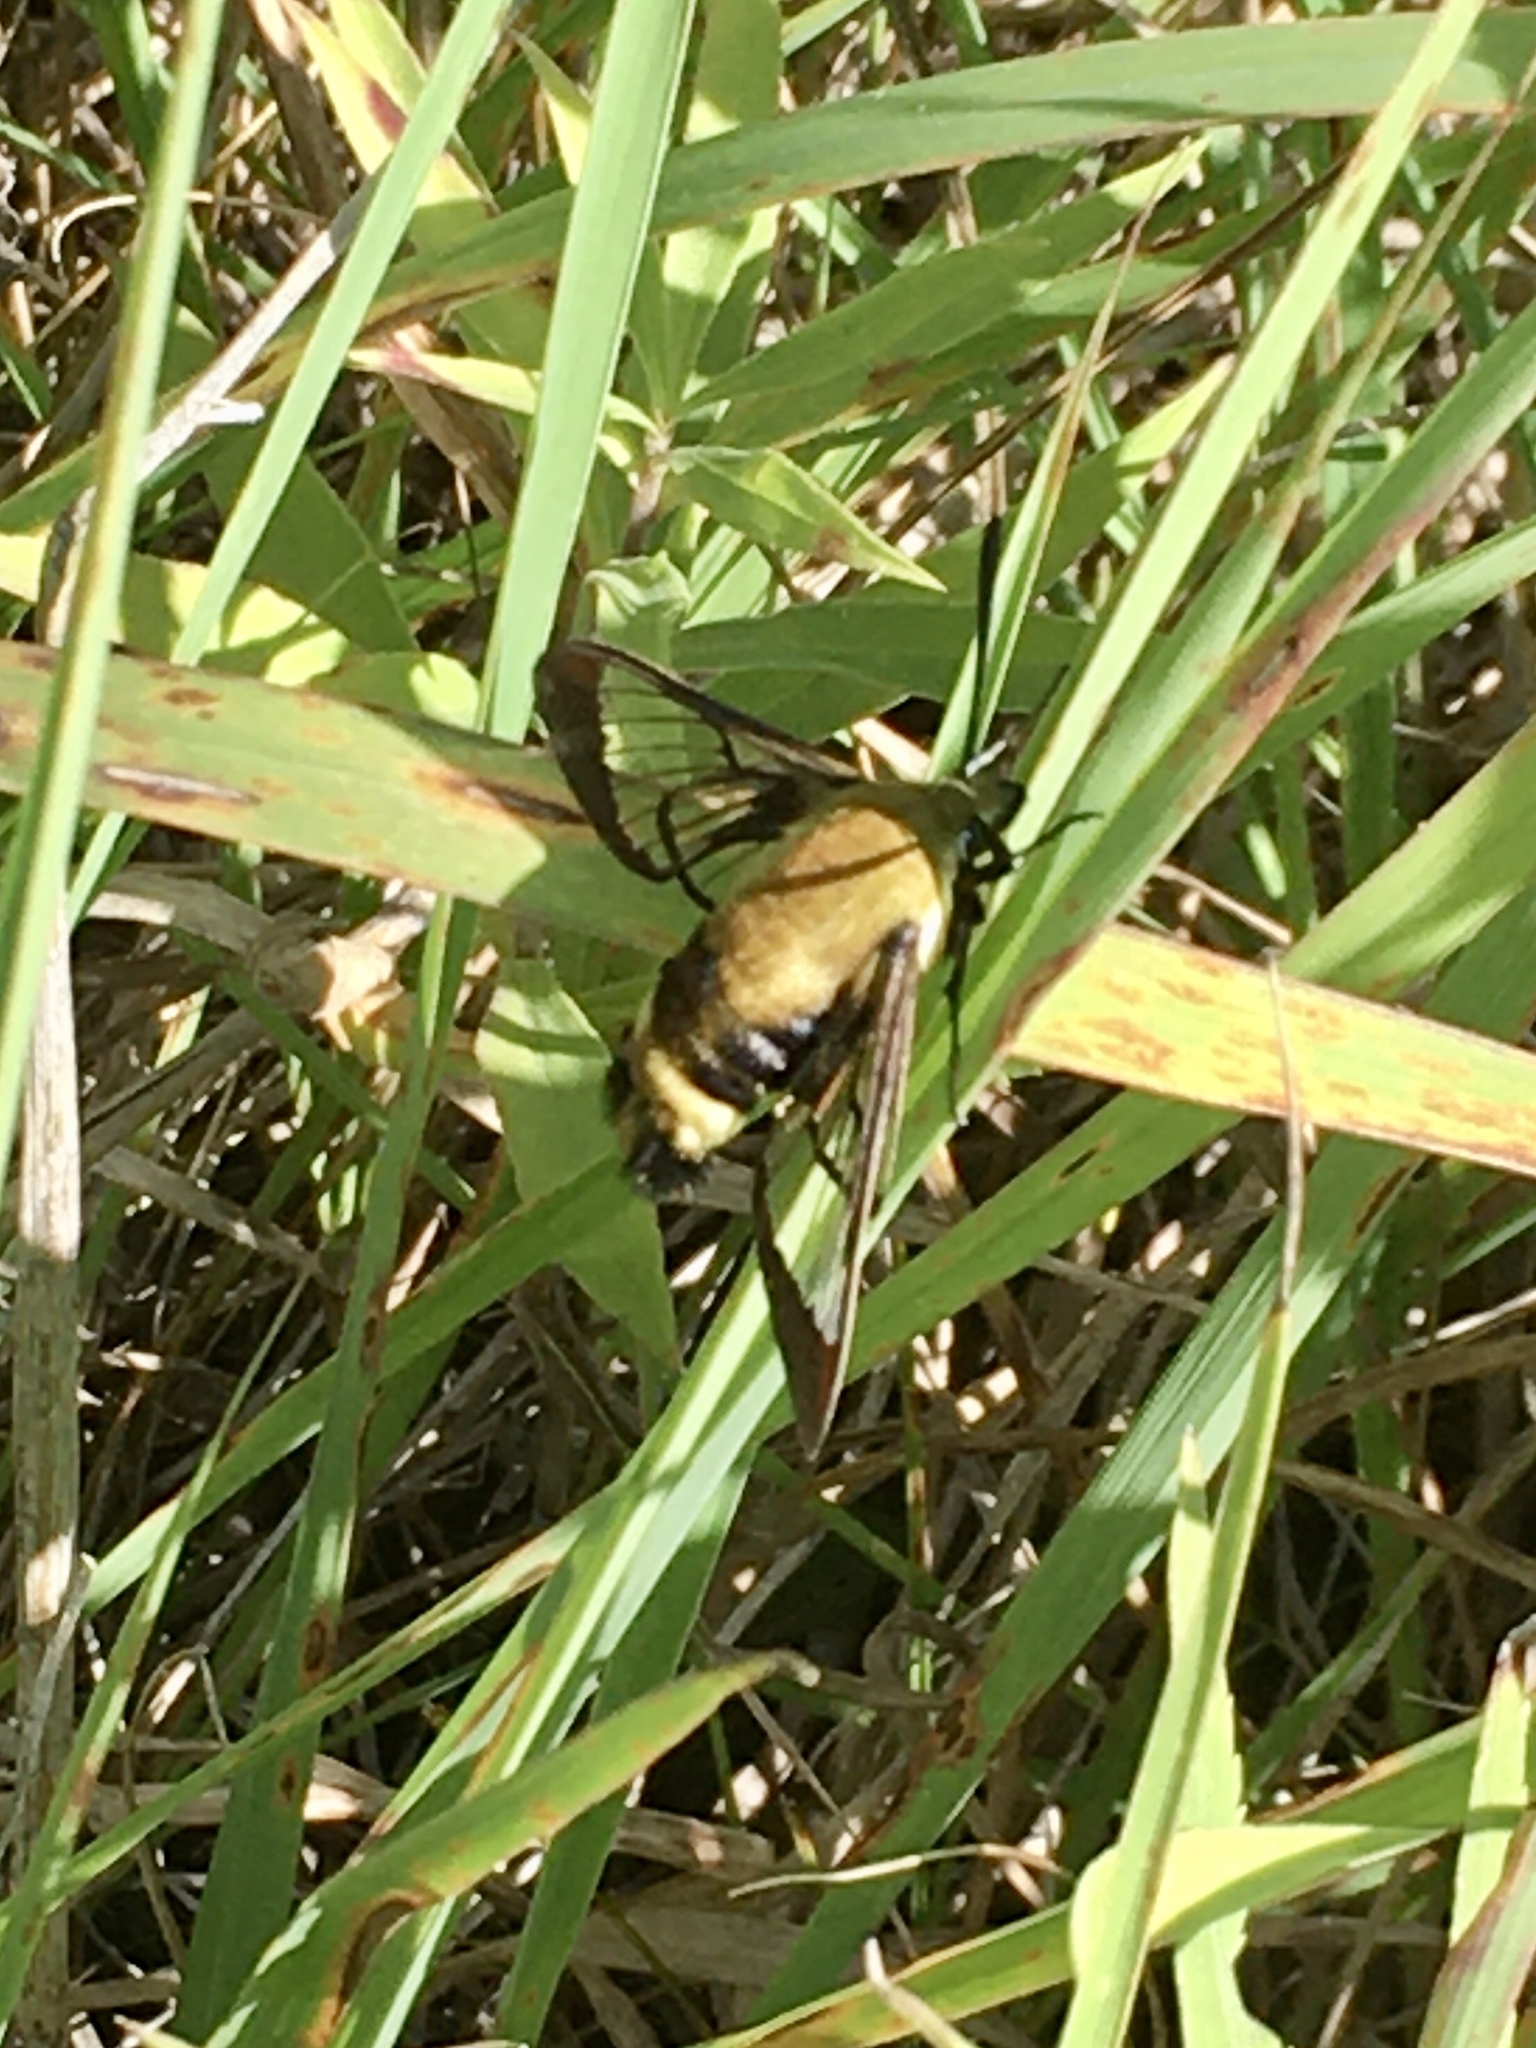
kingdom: Animalia
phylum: Arthropoda
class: Insecta
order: Lepidoptera
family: Sphingidae
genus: Hemaris
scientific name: Hemaris diffinis
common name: Bumblebee moth
